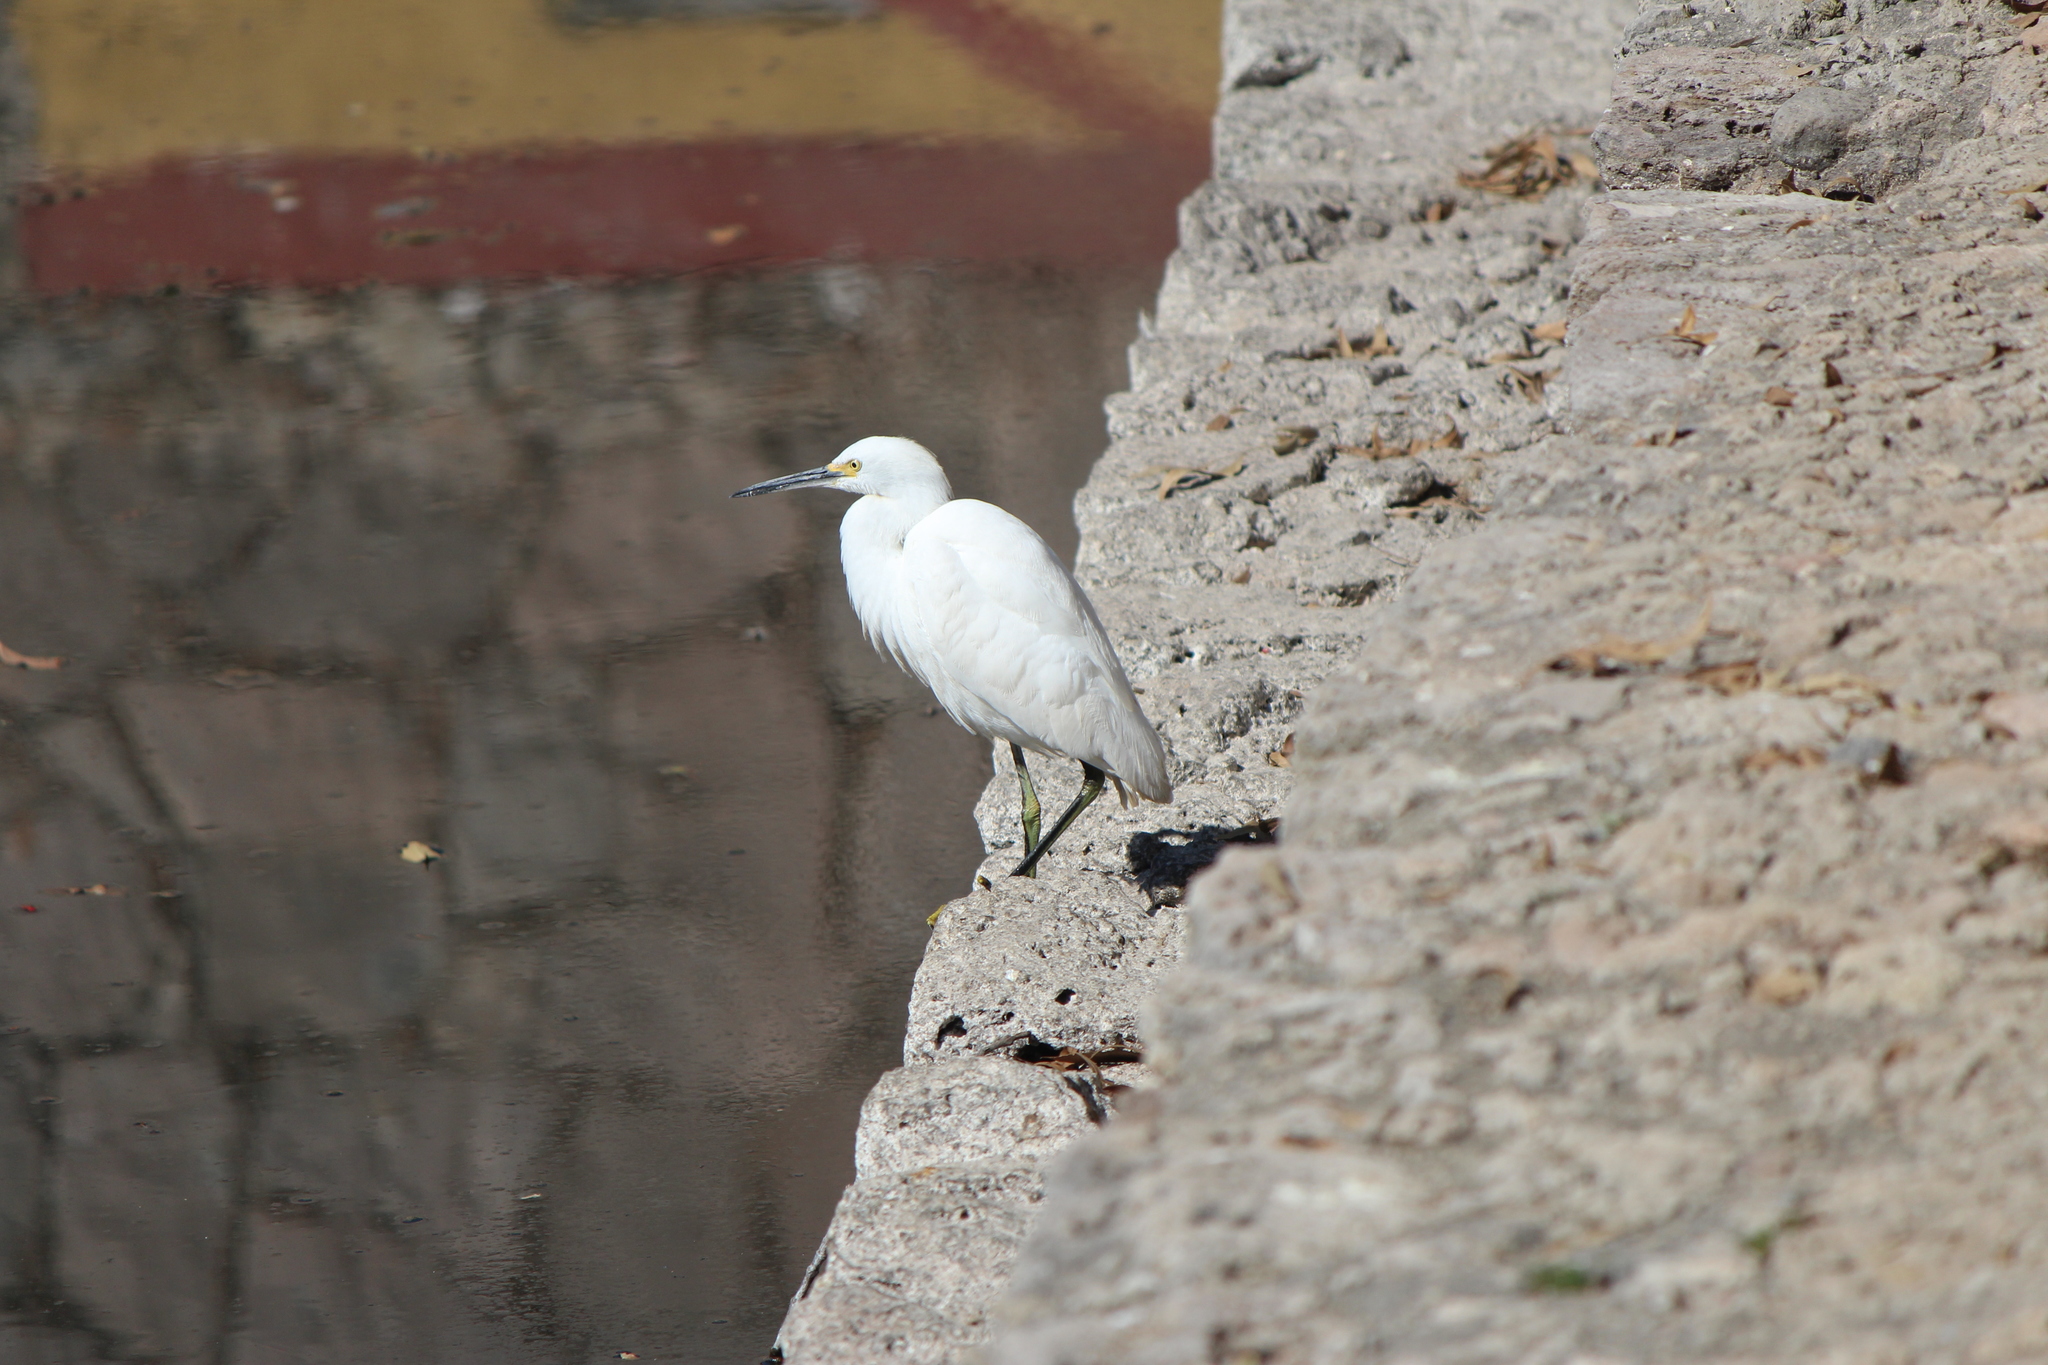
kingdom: Animalia
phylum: Chordata
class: Aves
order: Pelecaniformes
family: Ardeidae
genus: Egretta
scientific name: Egretta thula
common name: Snowy egret
